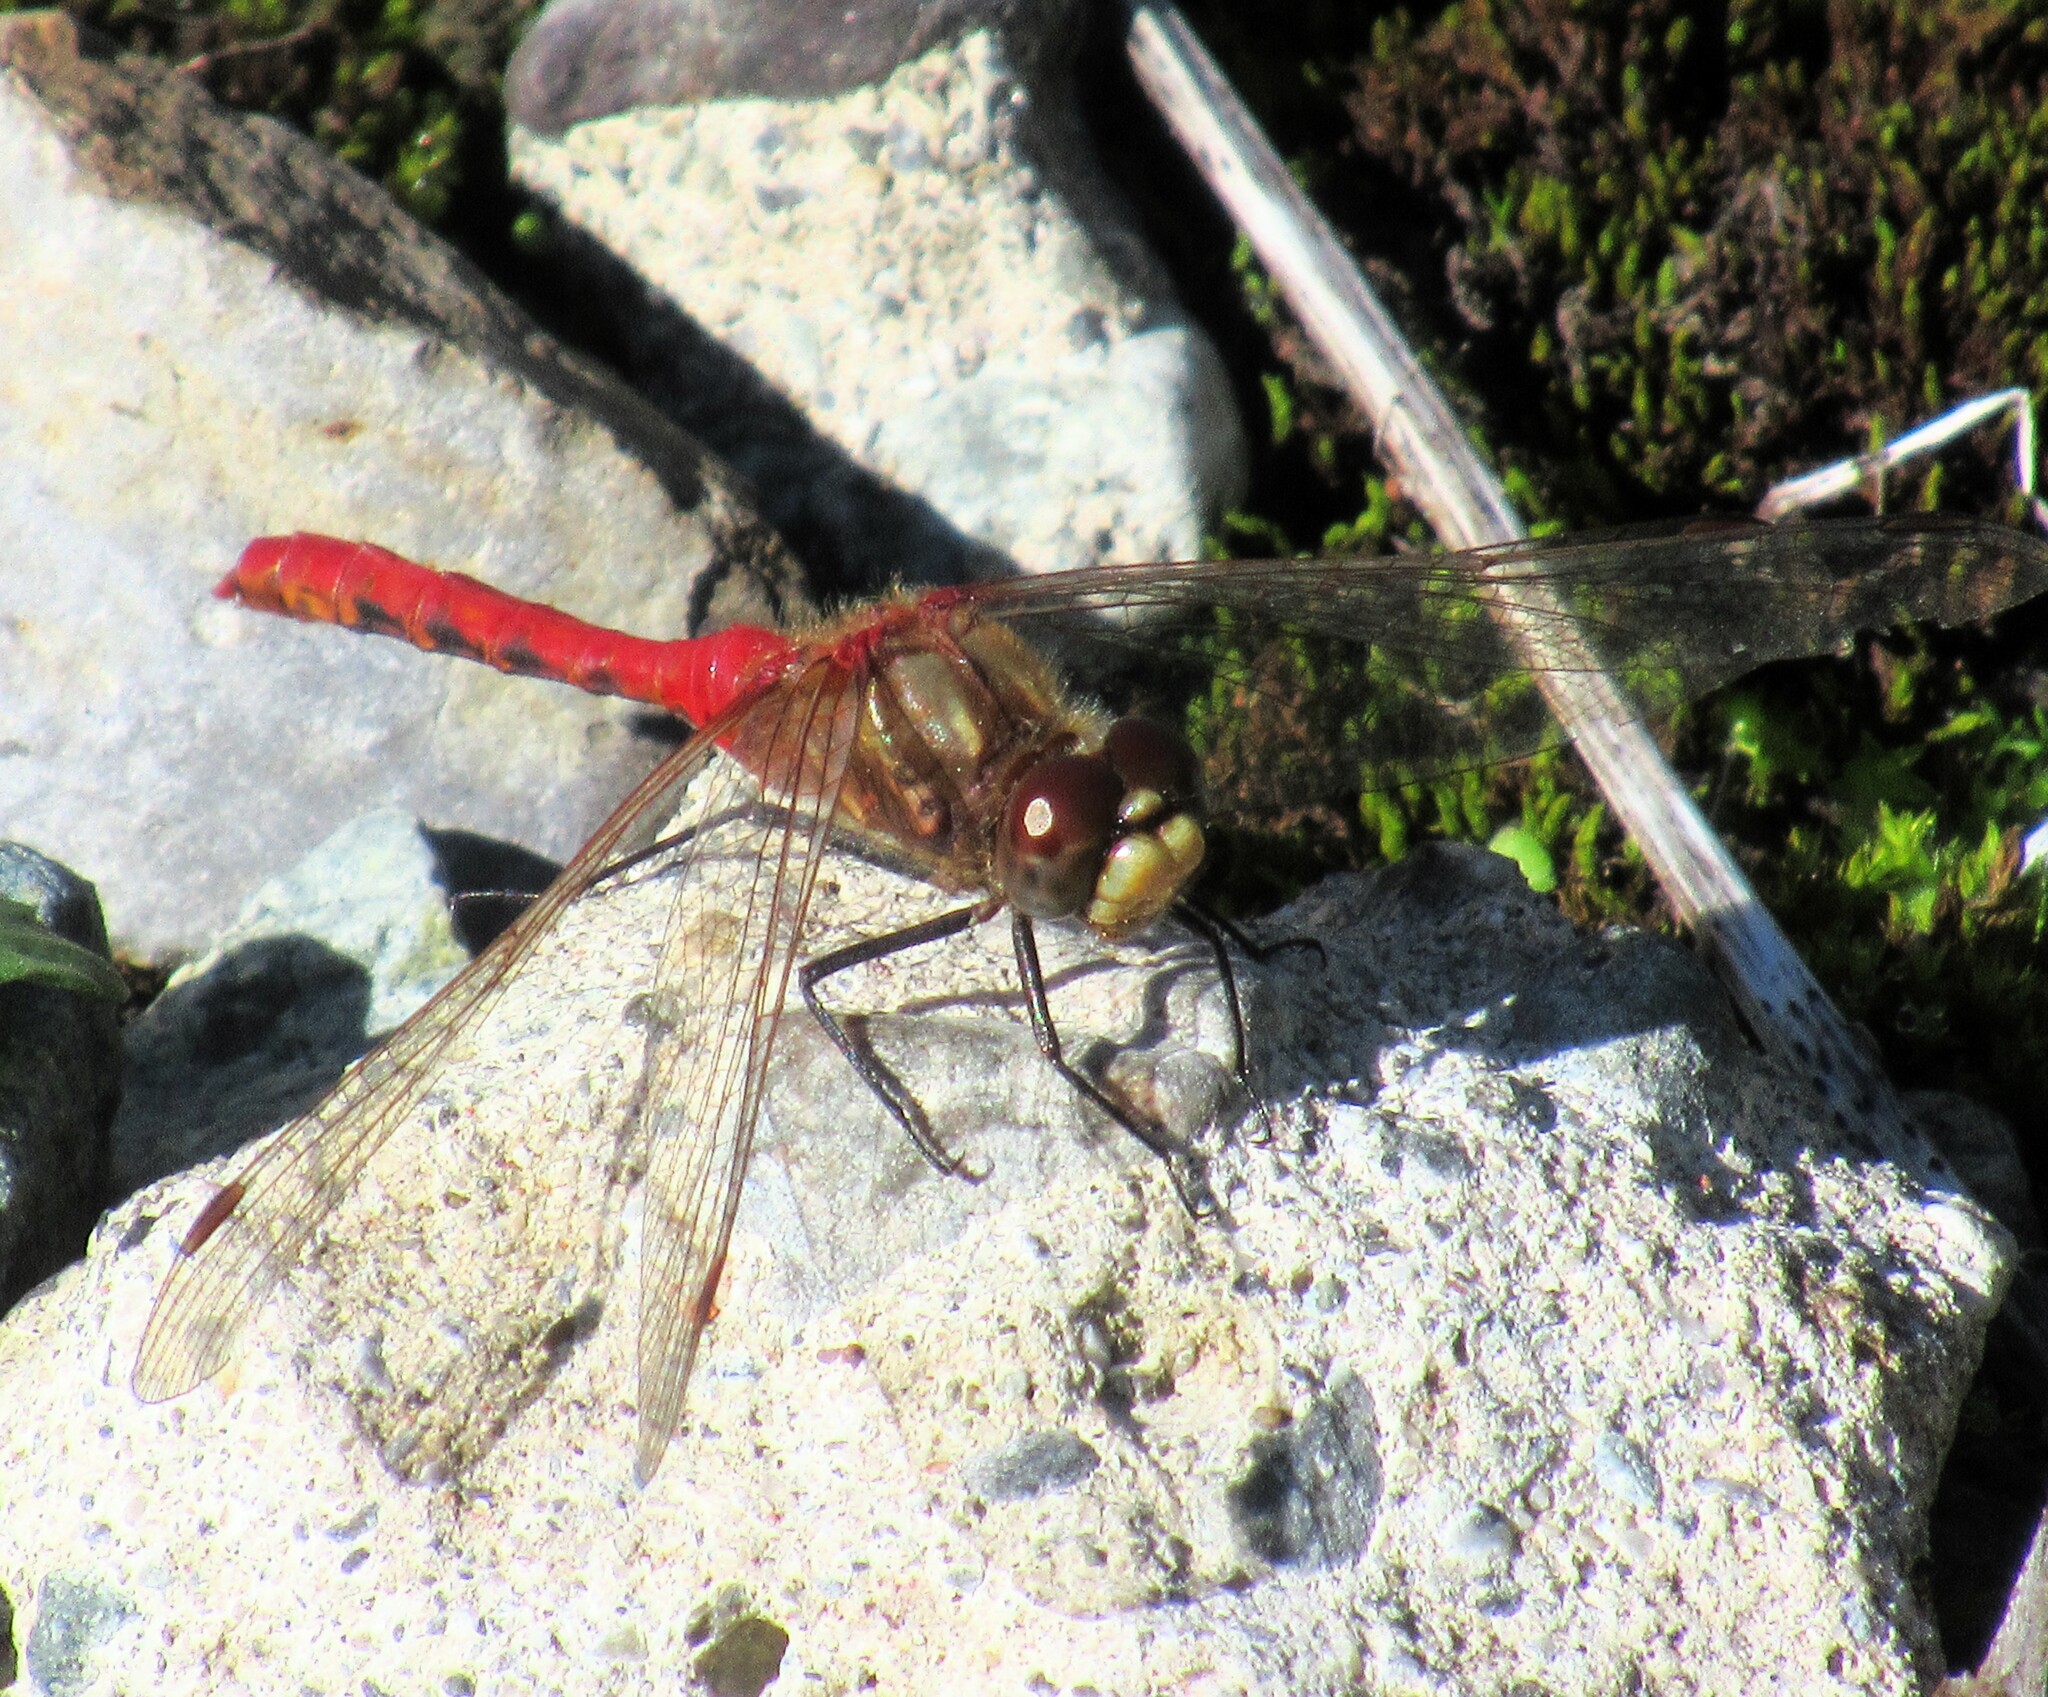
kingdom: Animalia
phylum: Arthropoda
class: Insecta
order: Odonata
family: Libellulidae
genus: Sympetrum
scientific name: Sympetrum pallipes
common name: Striped meadowhawk
